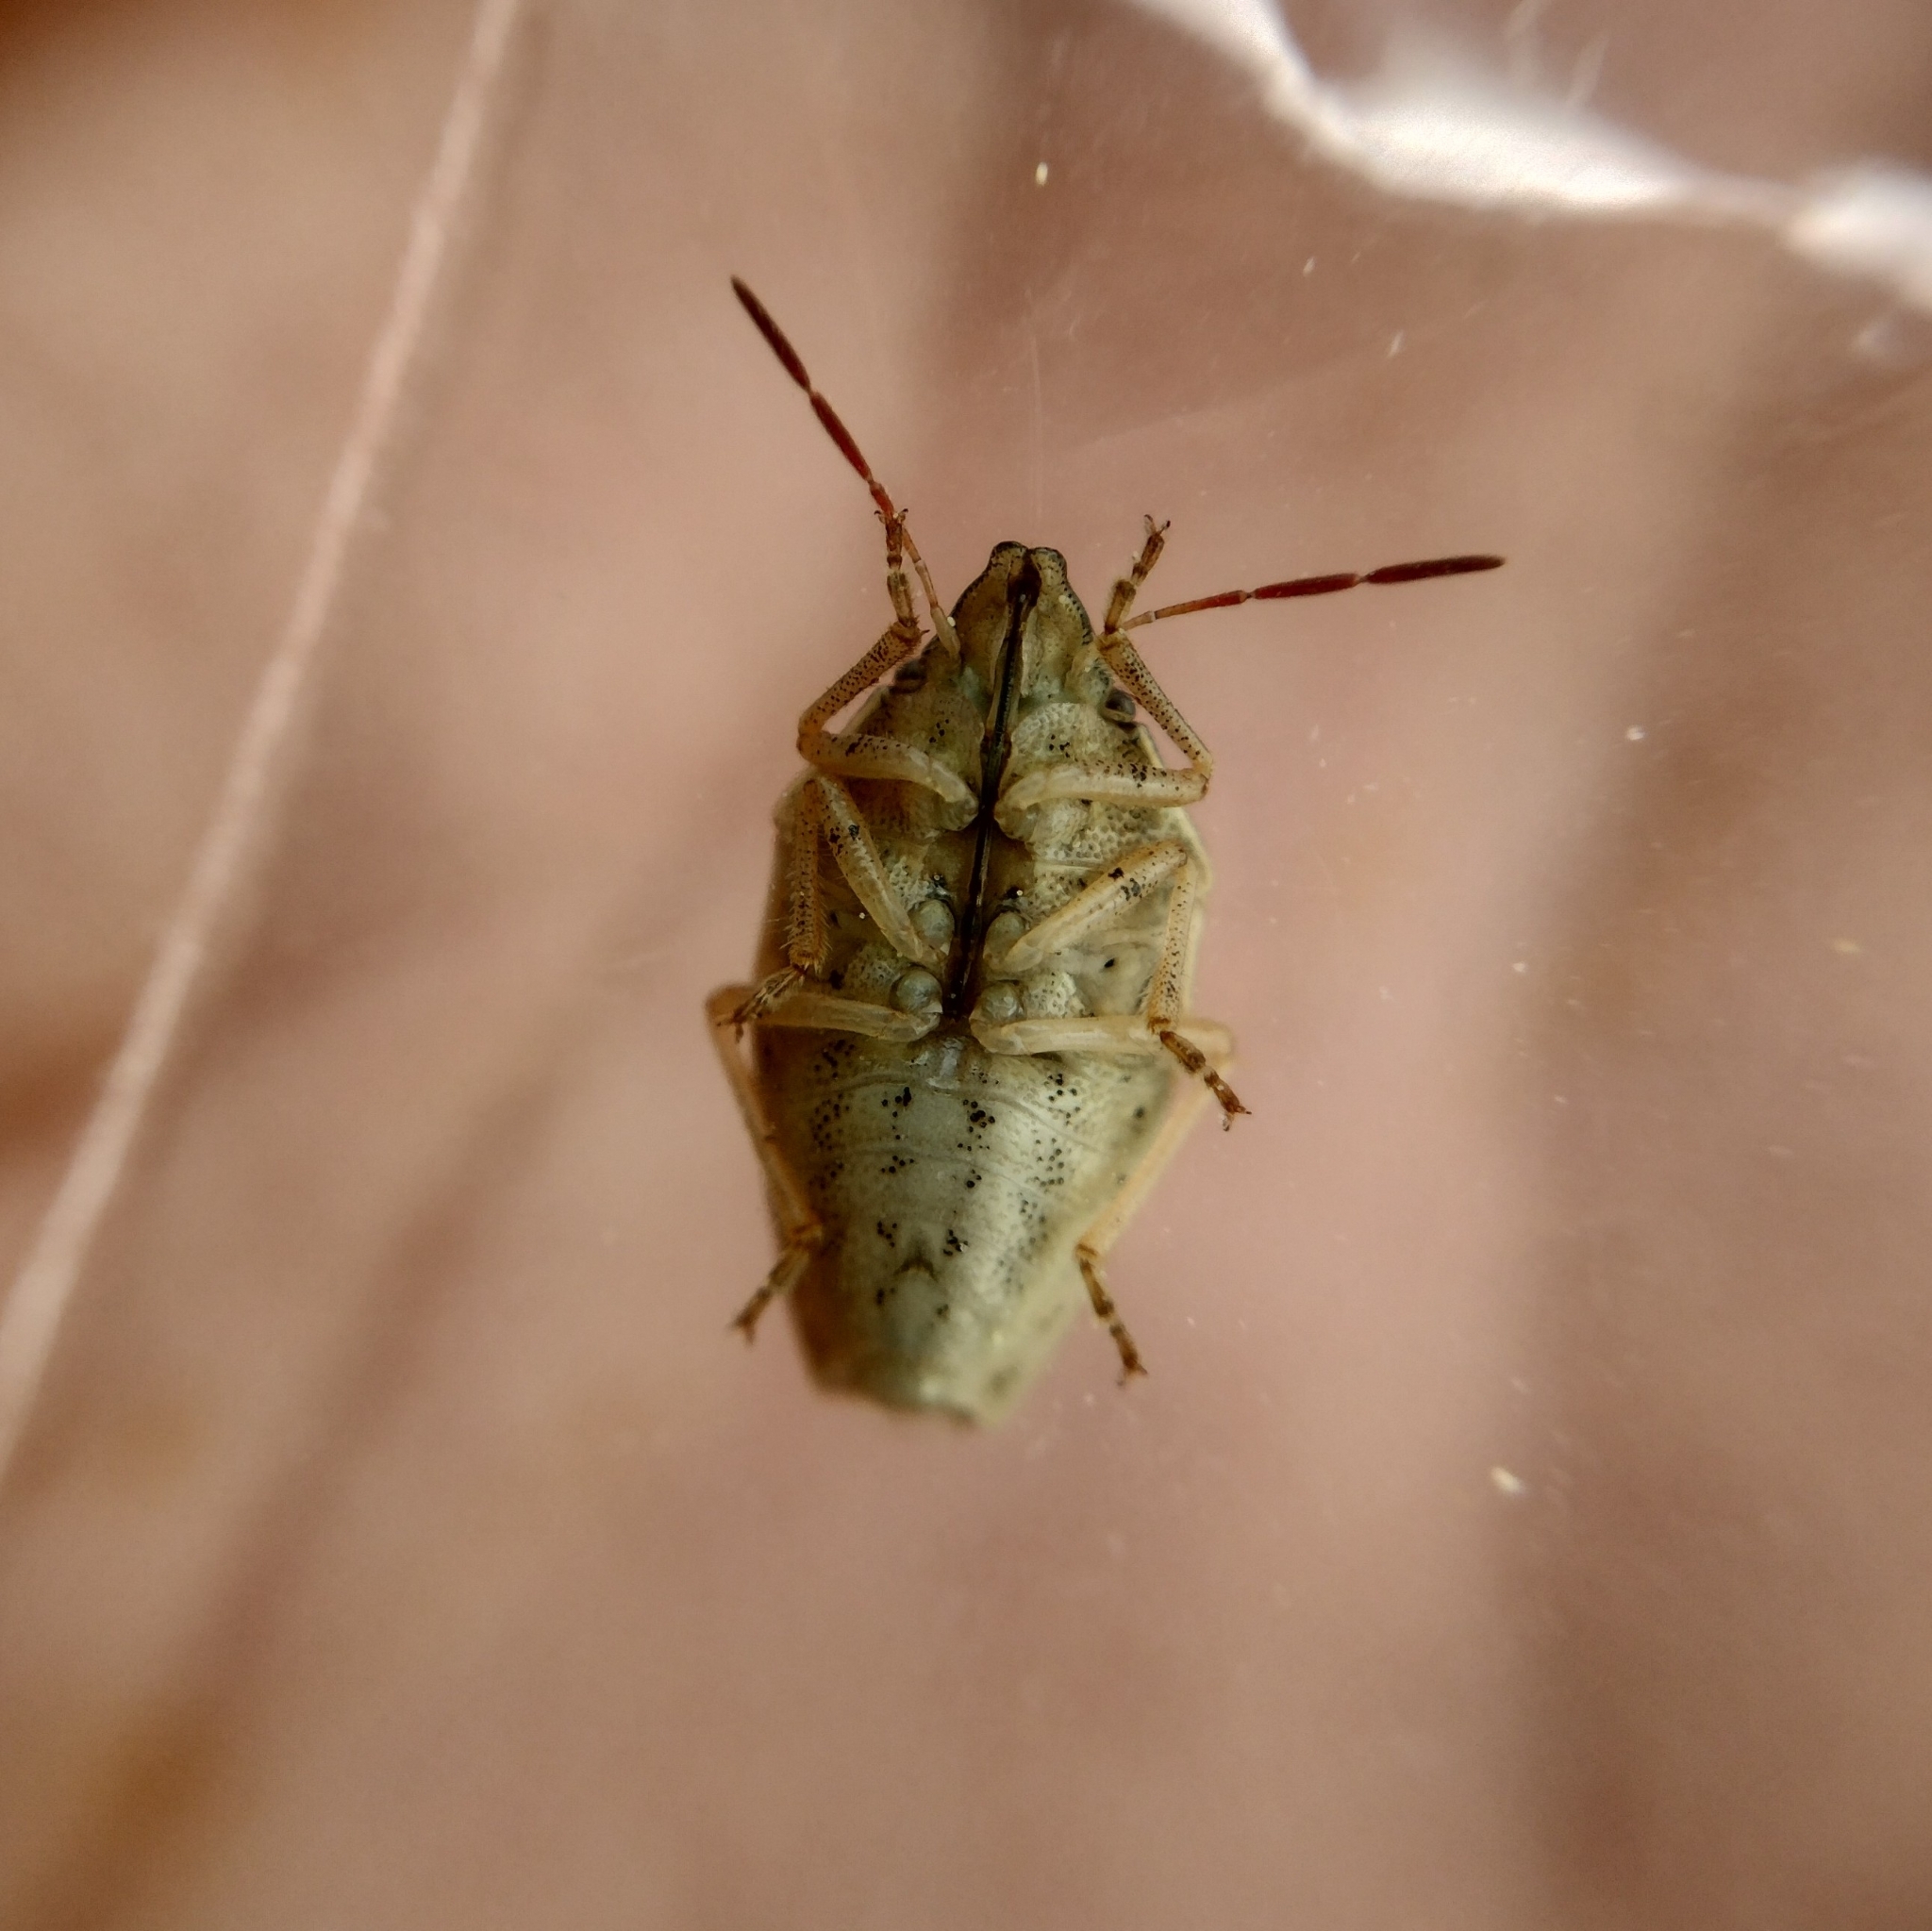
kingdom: Animalia
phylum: Arthropoda
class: Insecta
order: Hemiptera
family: Pentatomidae
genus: Aelia
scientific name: Aelia acuminata
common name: Bishop's mitre
